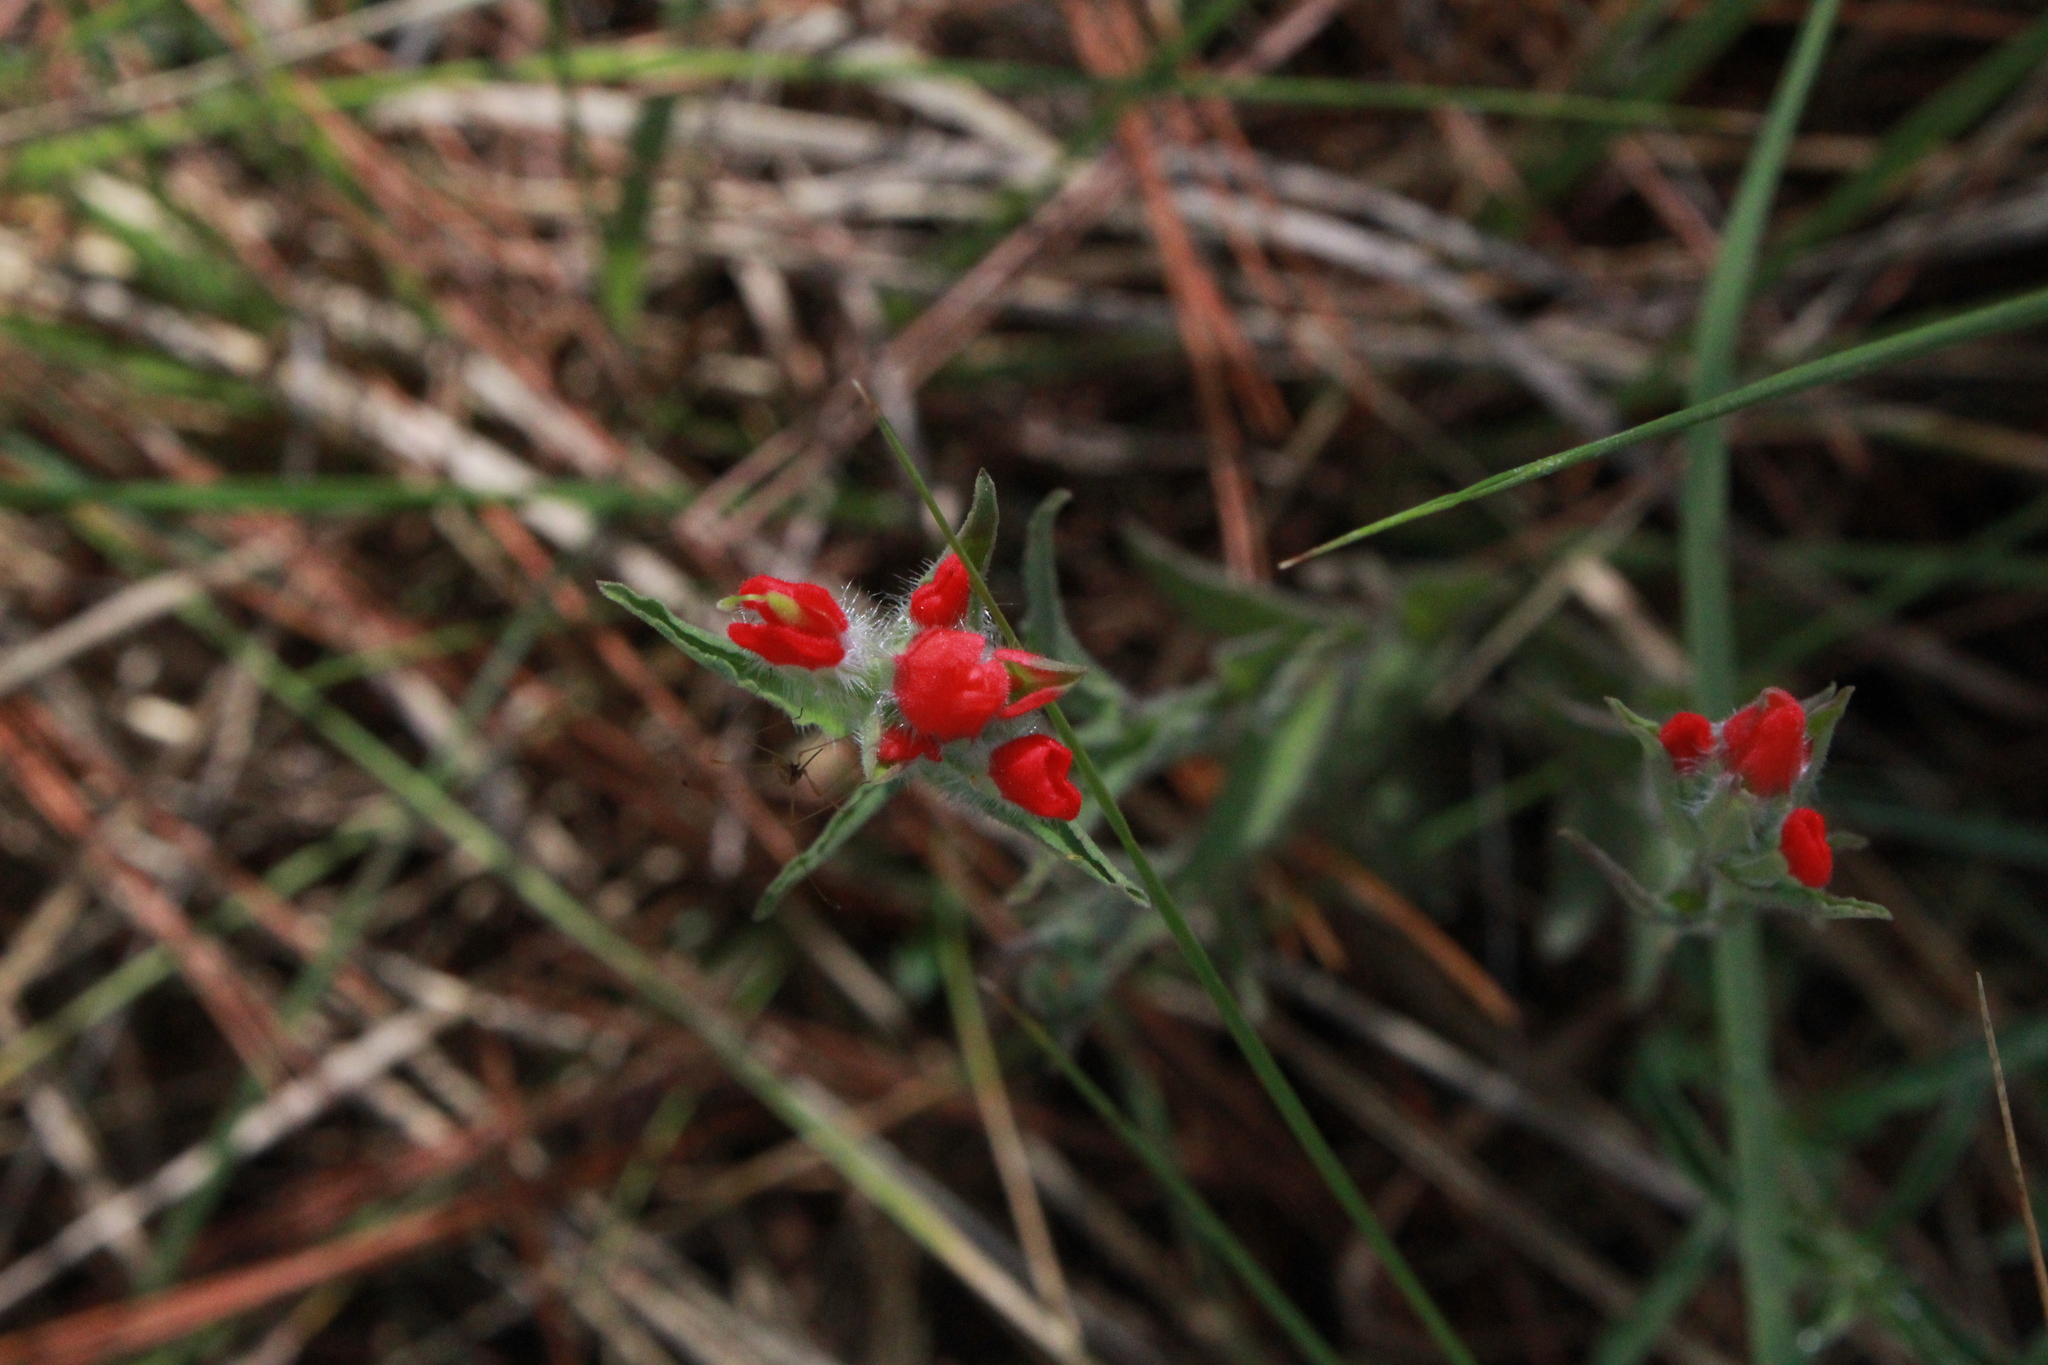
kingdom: Plantae
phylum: Tracheophyta
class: Magnoliopsida
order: Lamiales
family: Orobanchaceae
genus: Castilleja
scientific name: Castilleja scorzonerifolia
